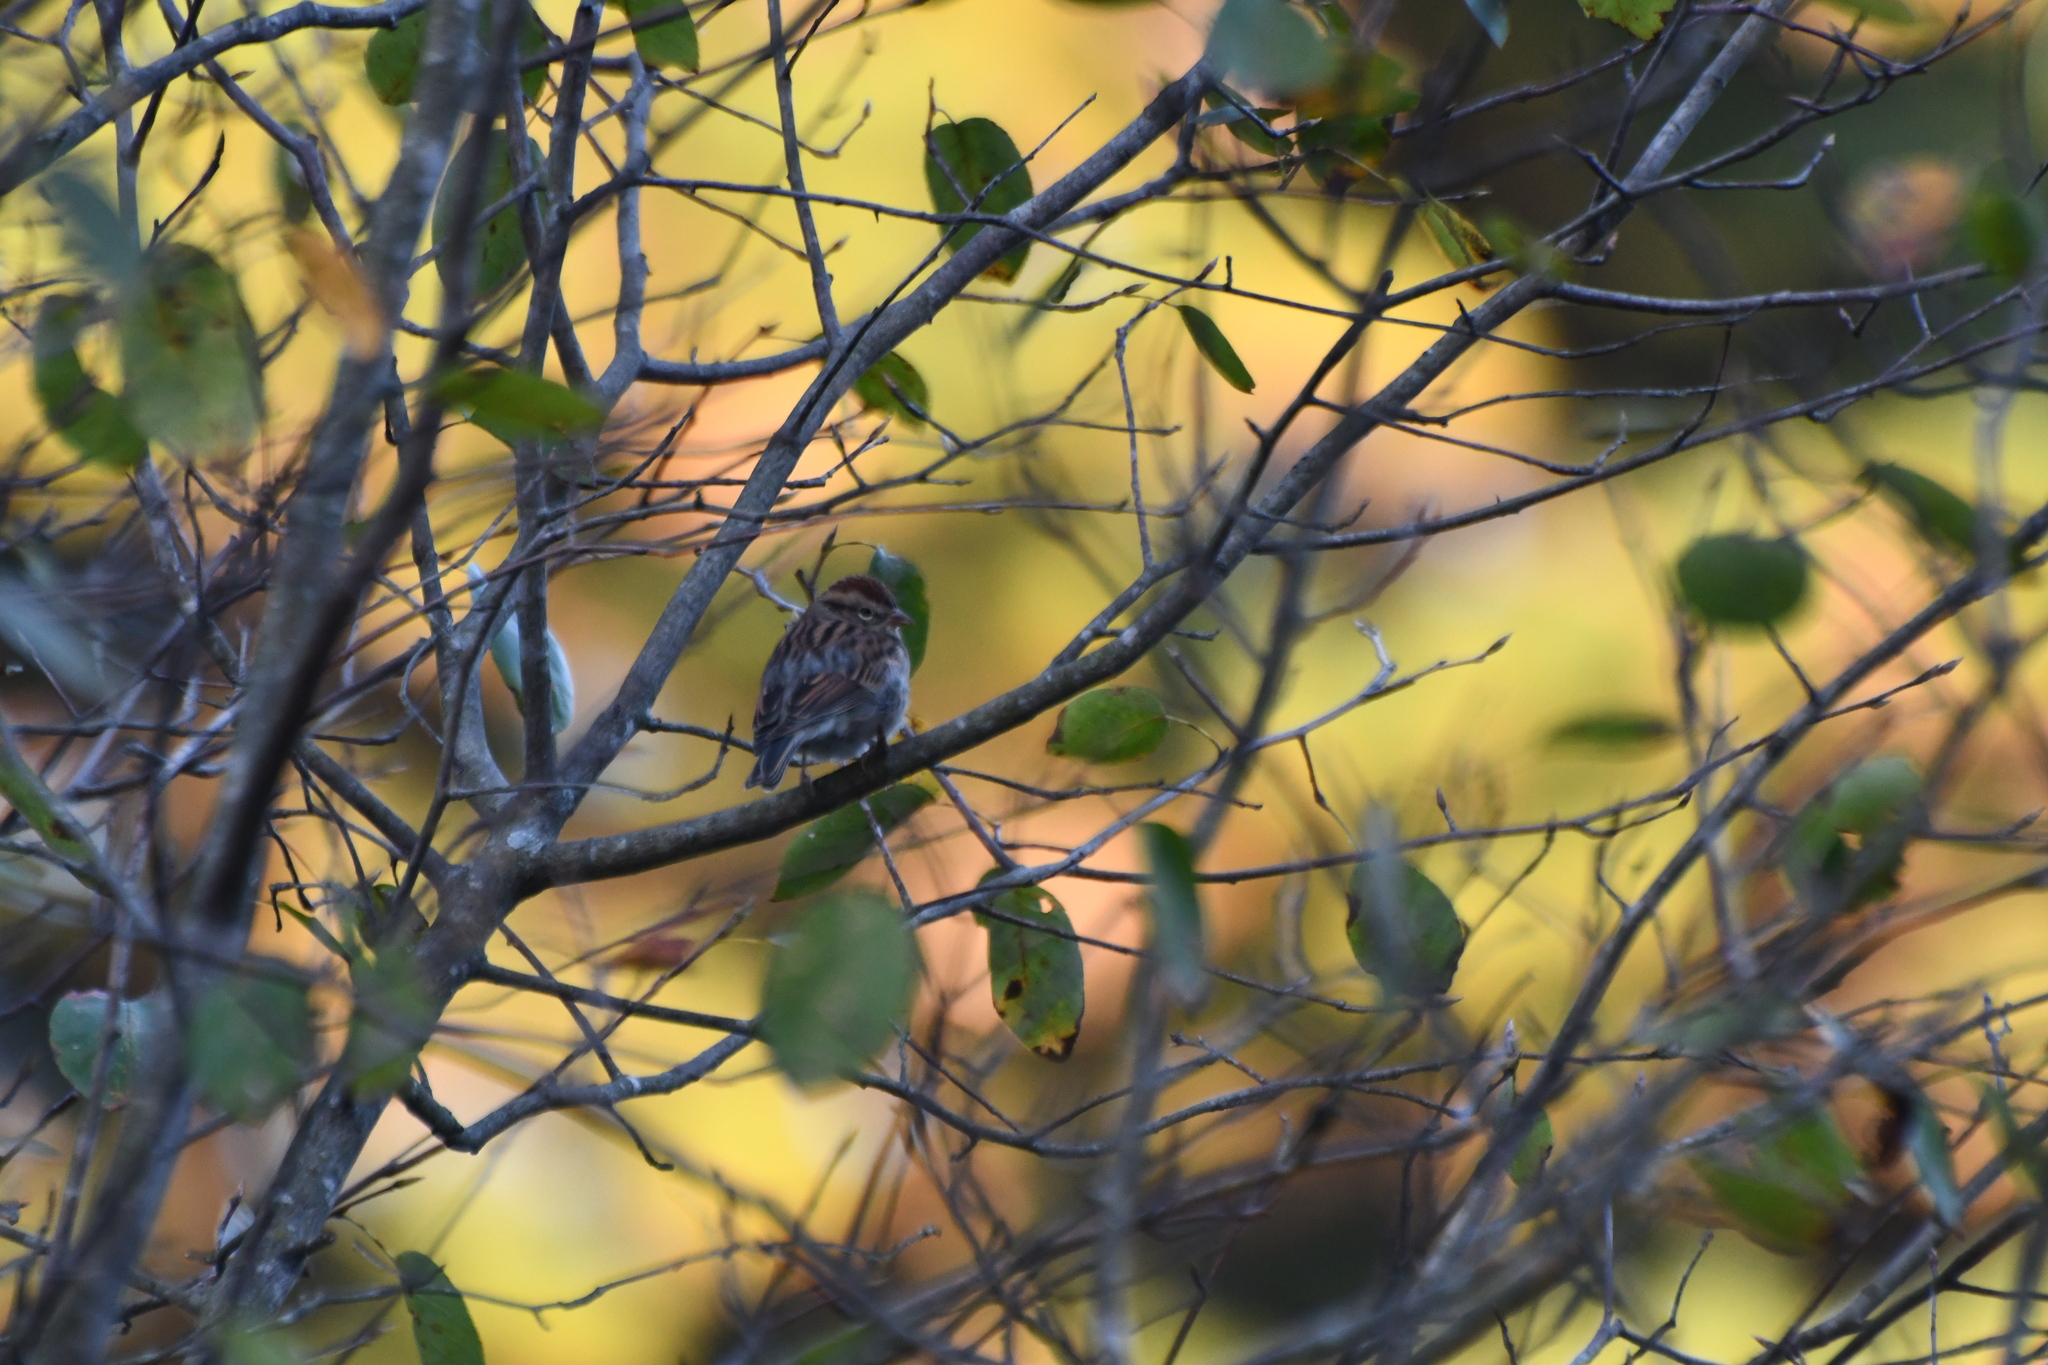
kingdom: Animalia
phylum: Chordata
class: Aves
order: Passeriformes
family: Passerellidae
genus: Spizella
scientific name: Spizella passerina
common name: Chipping sparrow
